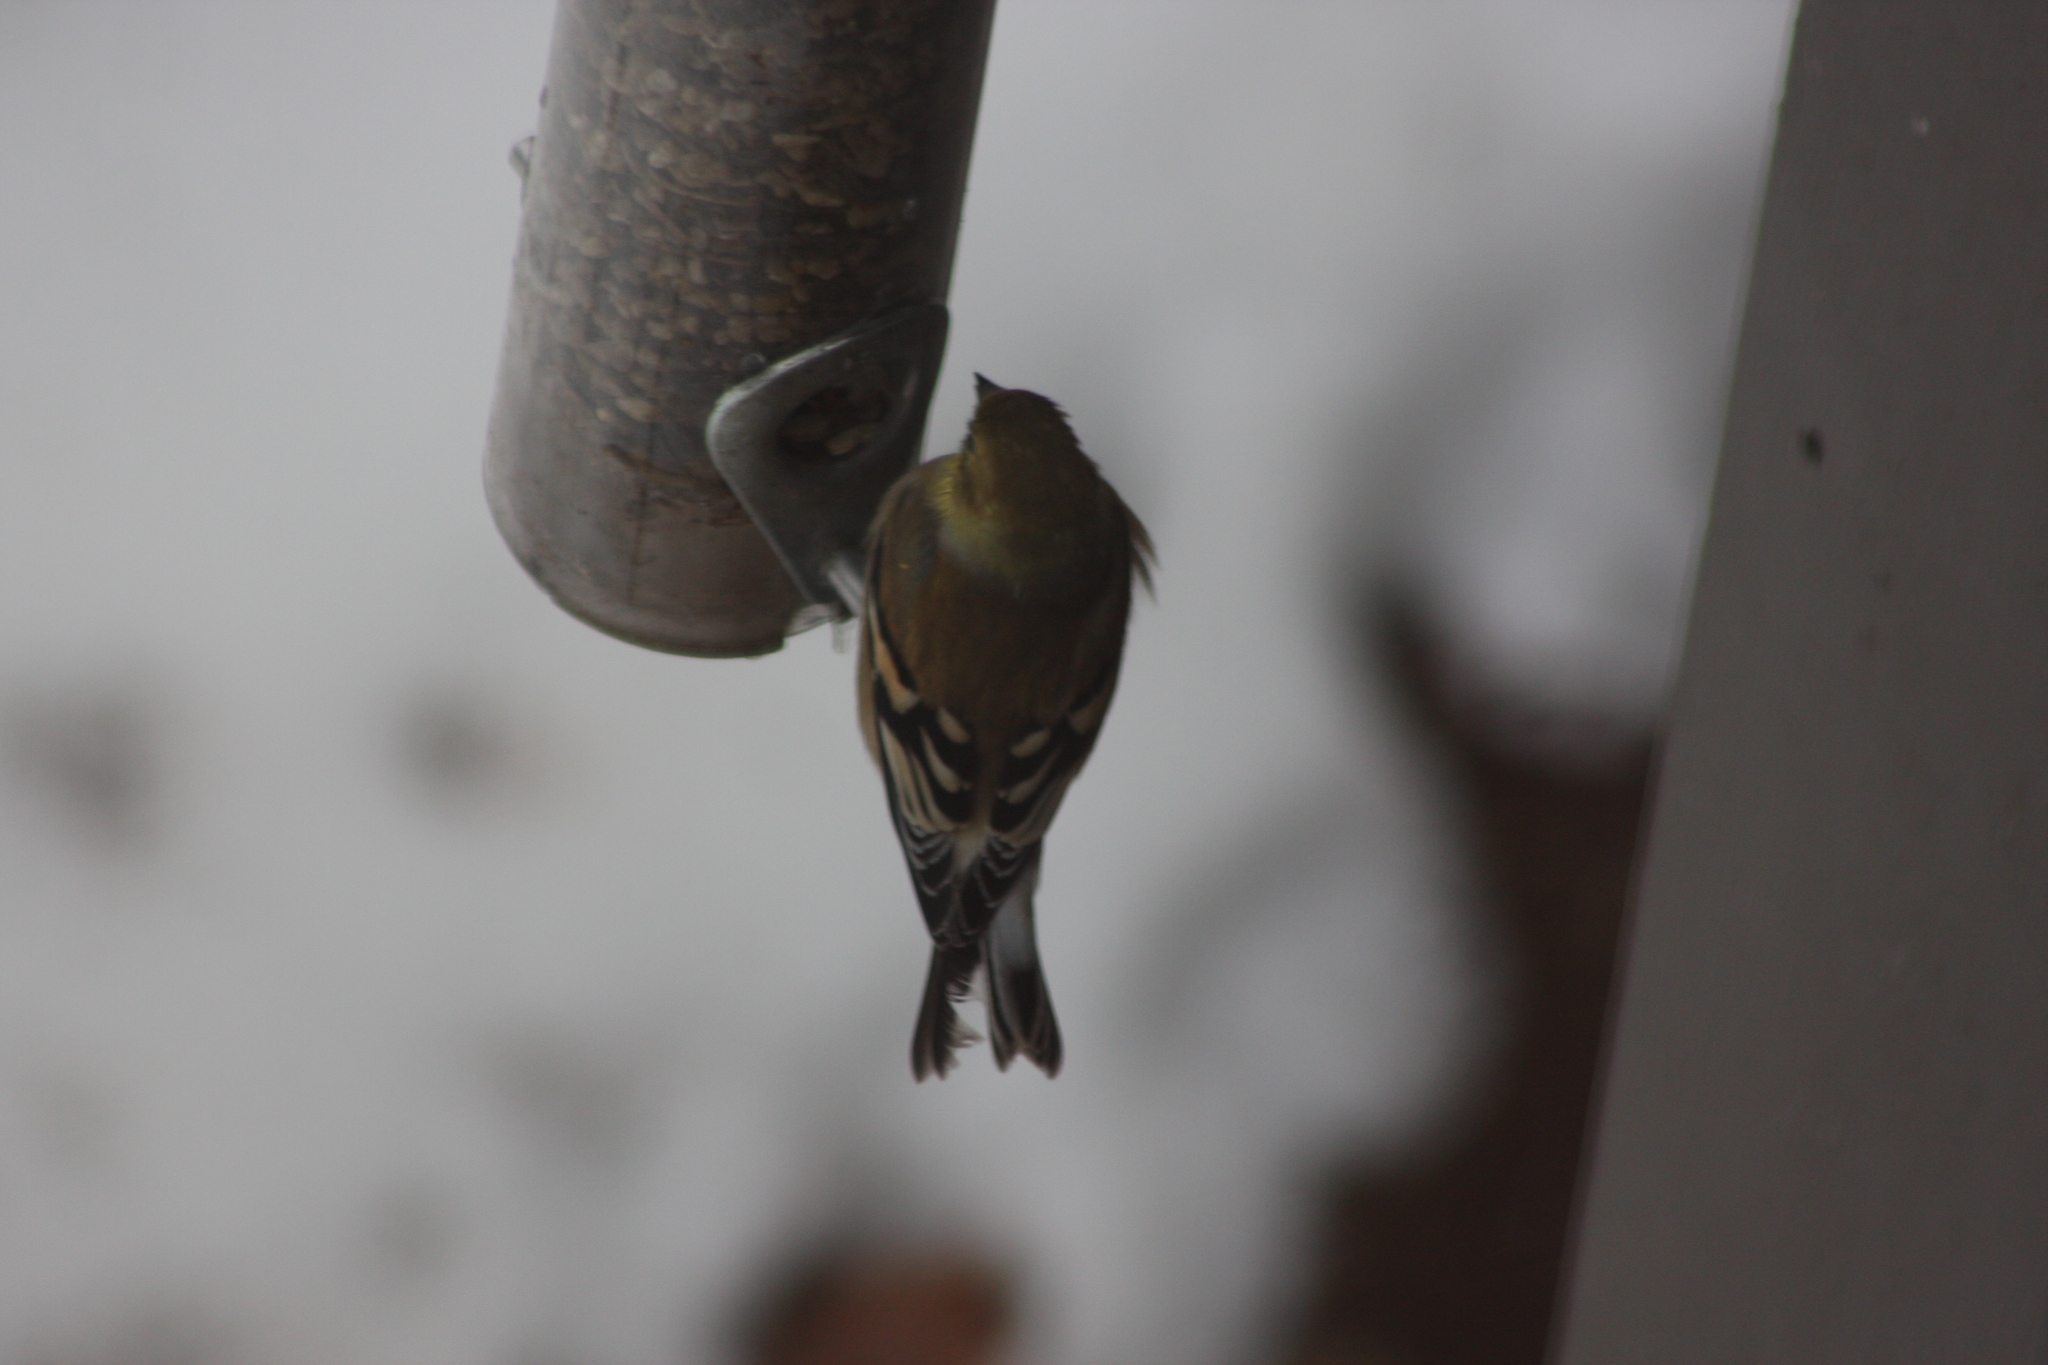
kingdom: Animalia
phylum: Chordata
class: Aves
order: Passeriformes
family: Fringillidae
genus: Spinus
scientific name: Spinus tristis
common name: American goldfinch
